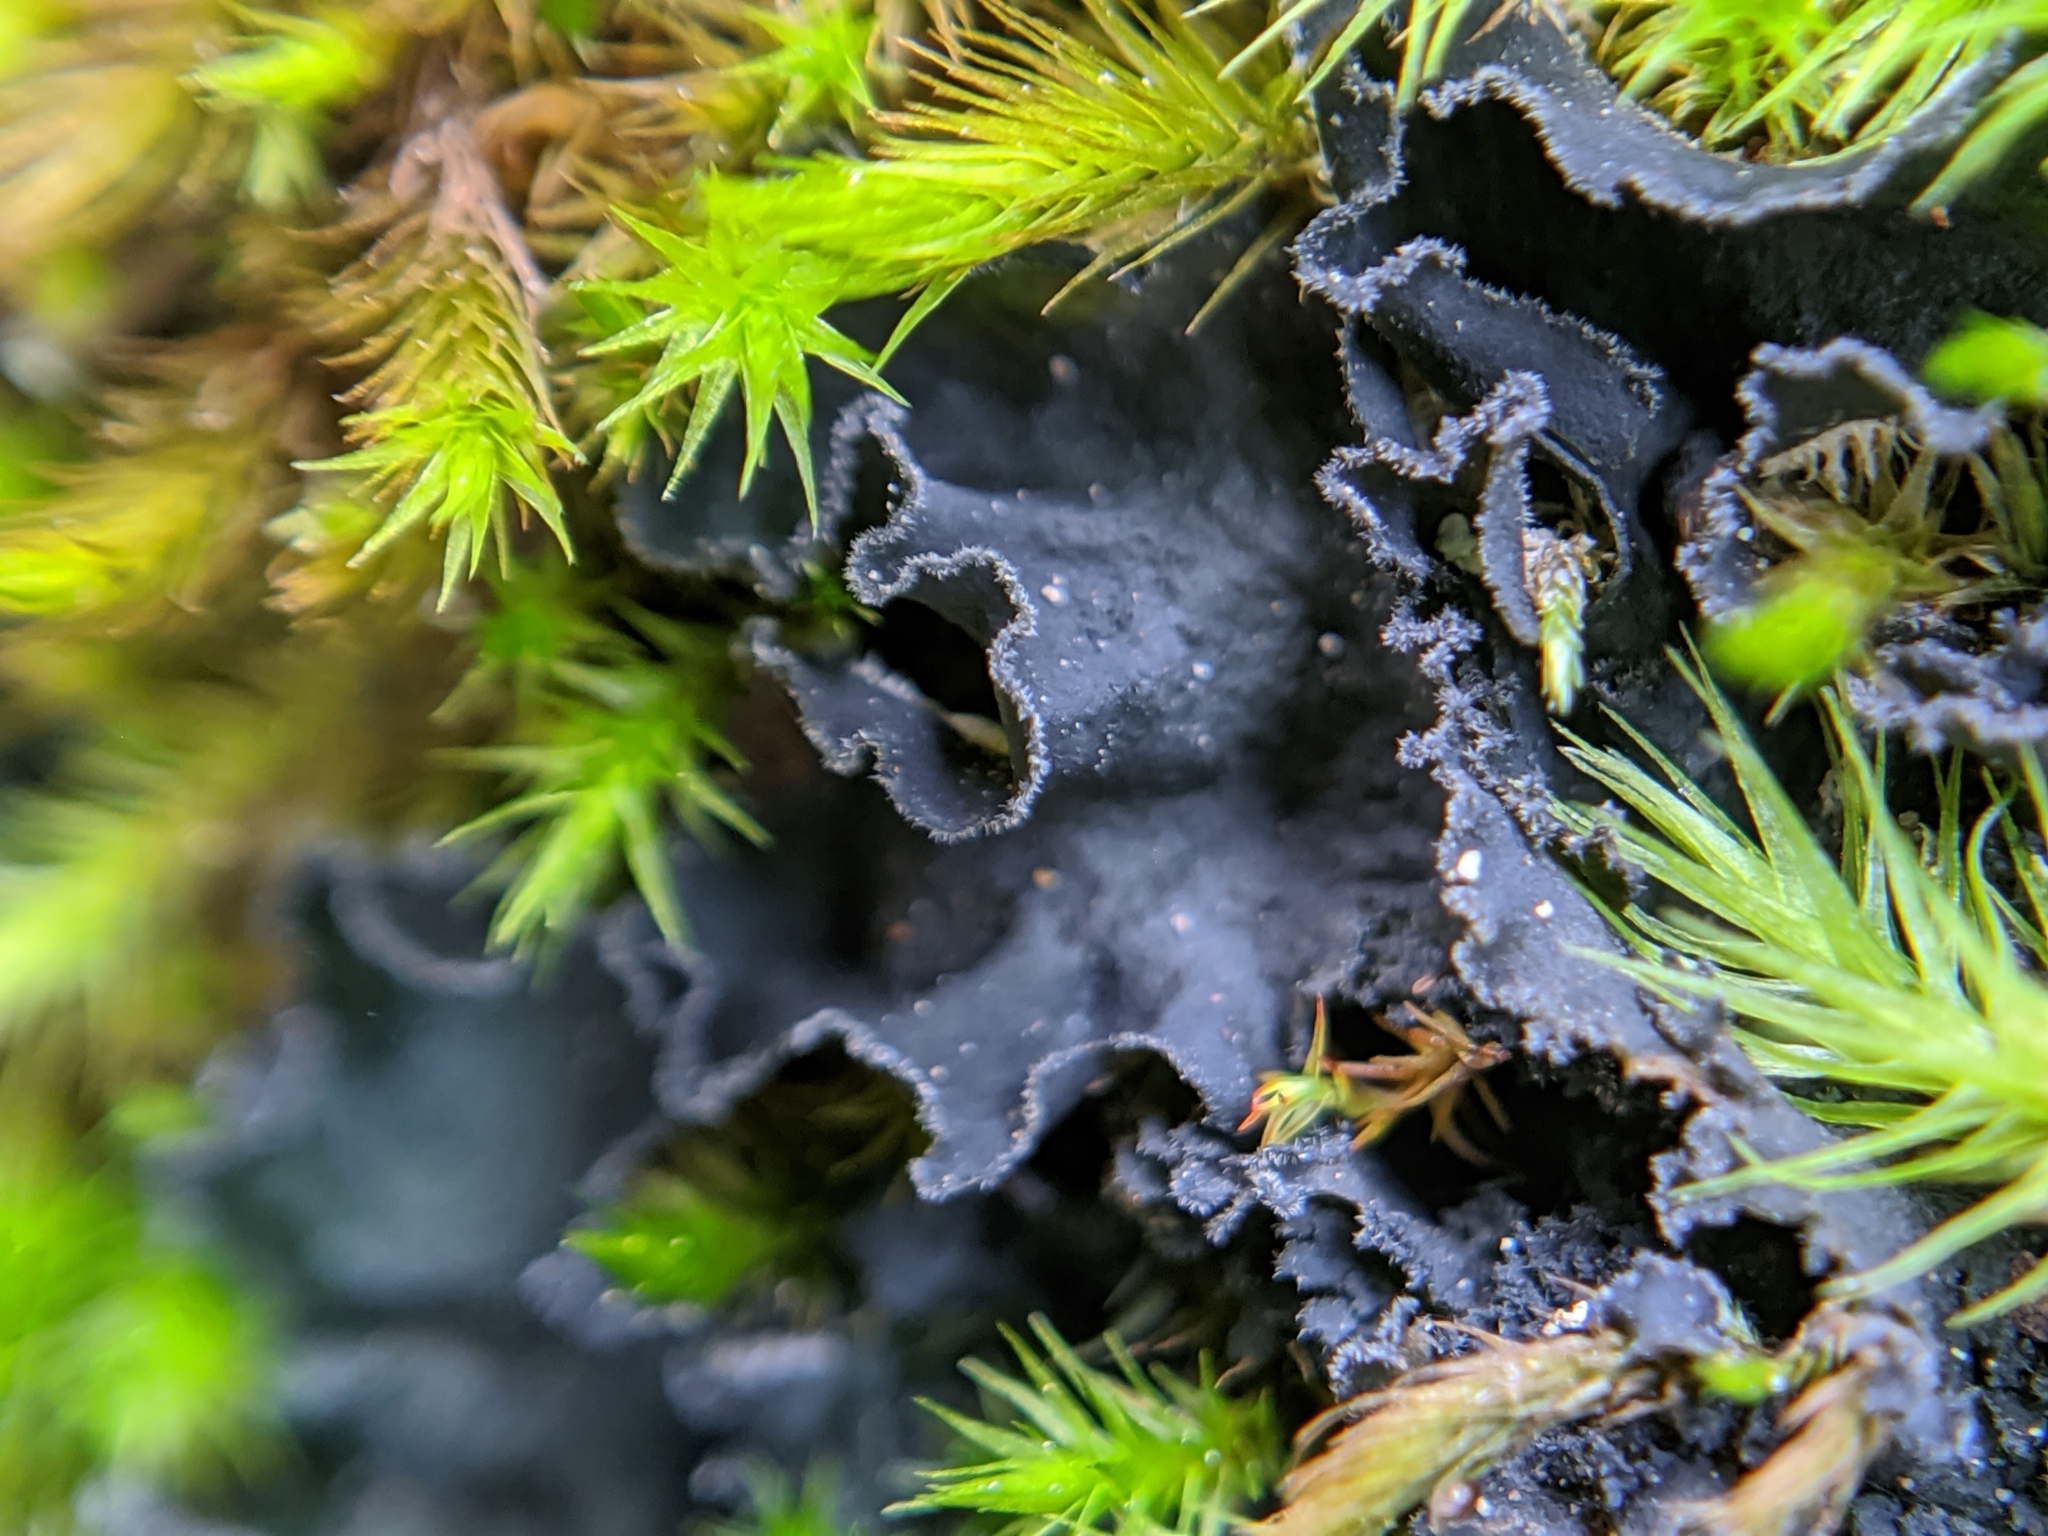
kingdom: Fungi
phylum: Ascomycota
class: Lecanoromycetes
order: Peltigerales
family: Massalongiaceae
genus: Leptochidium
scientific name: Leptochidium albociliatum
